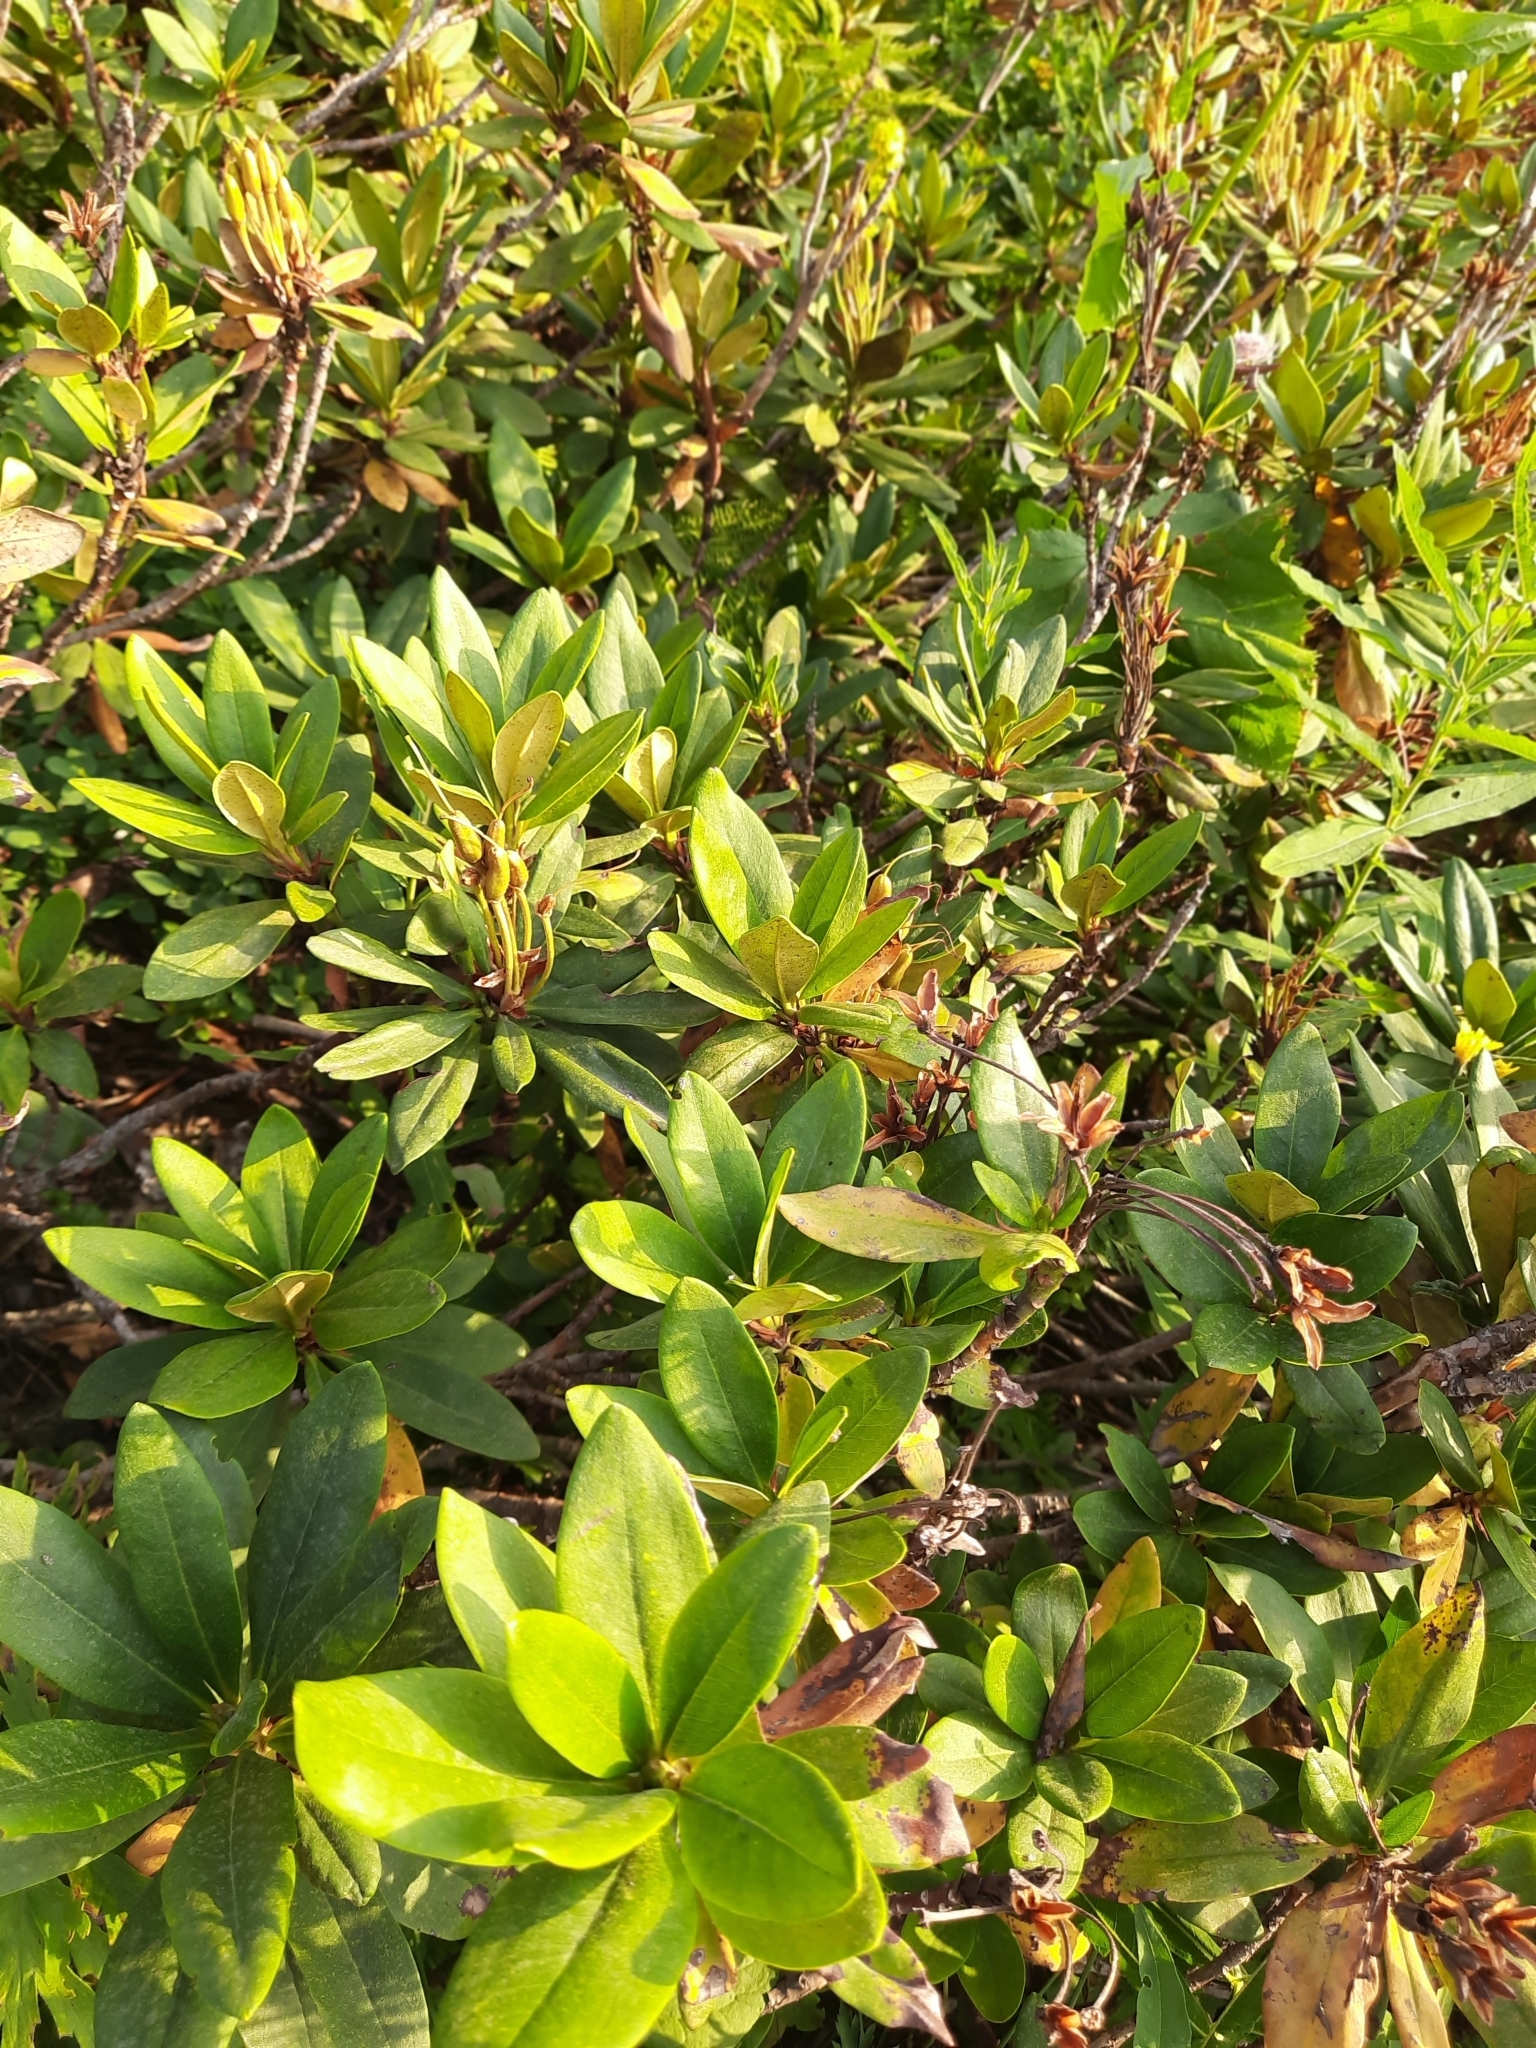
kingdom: Plantae
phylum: Tracheophyta
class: Magnoliopsida
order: Ericales
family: Ericaceae
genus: Rhododendron
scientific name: Rhododendron caucasicum
